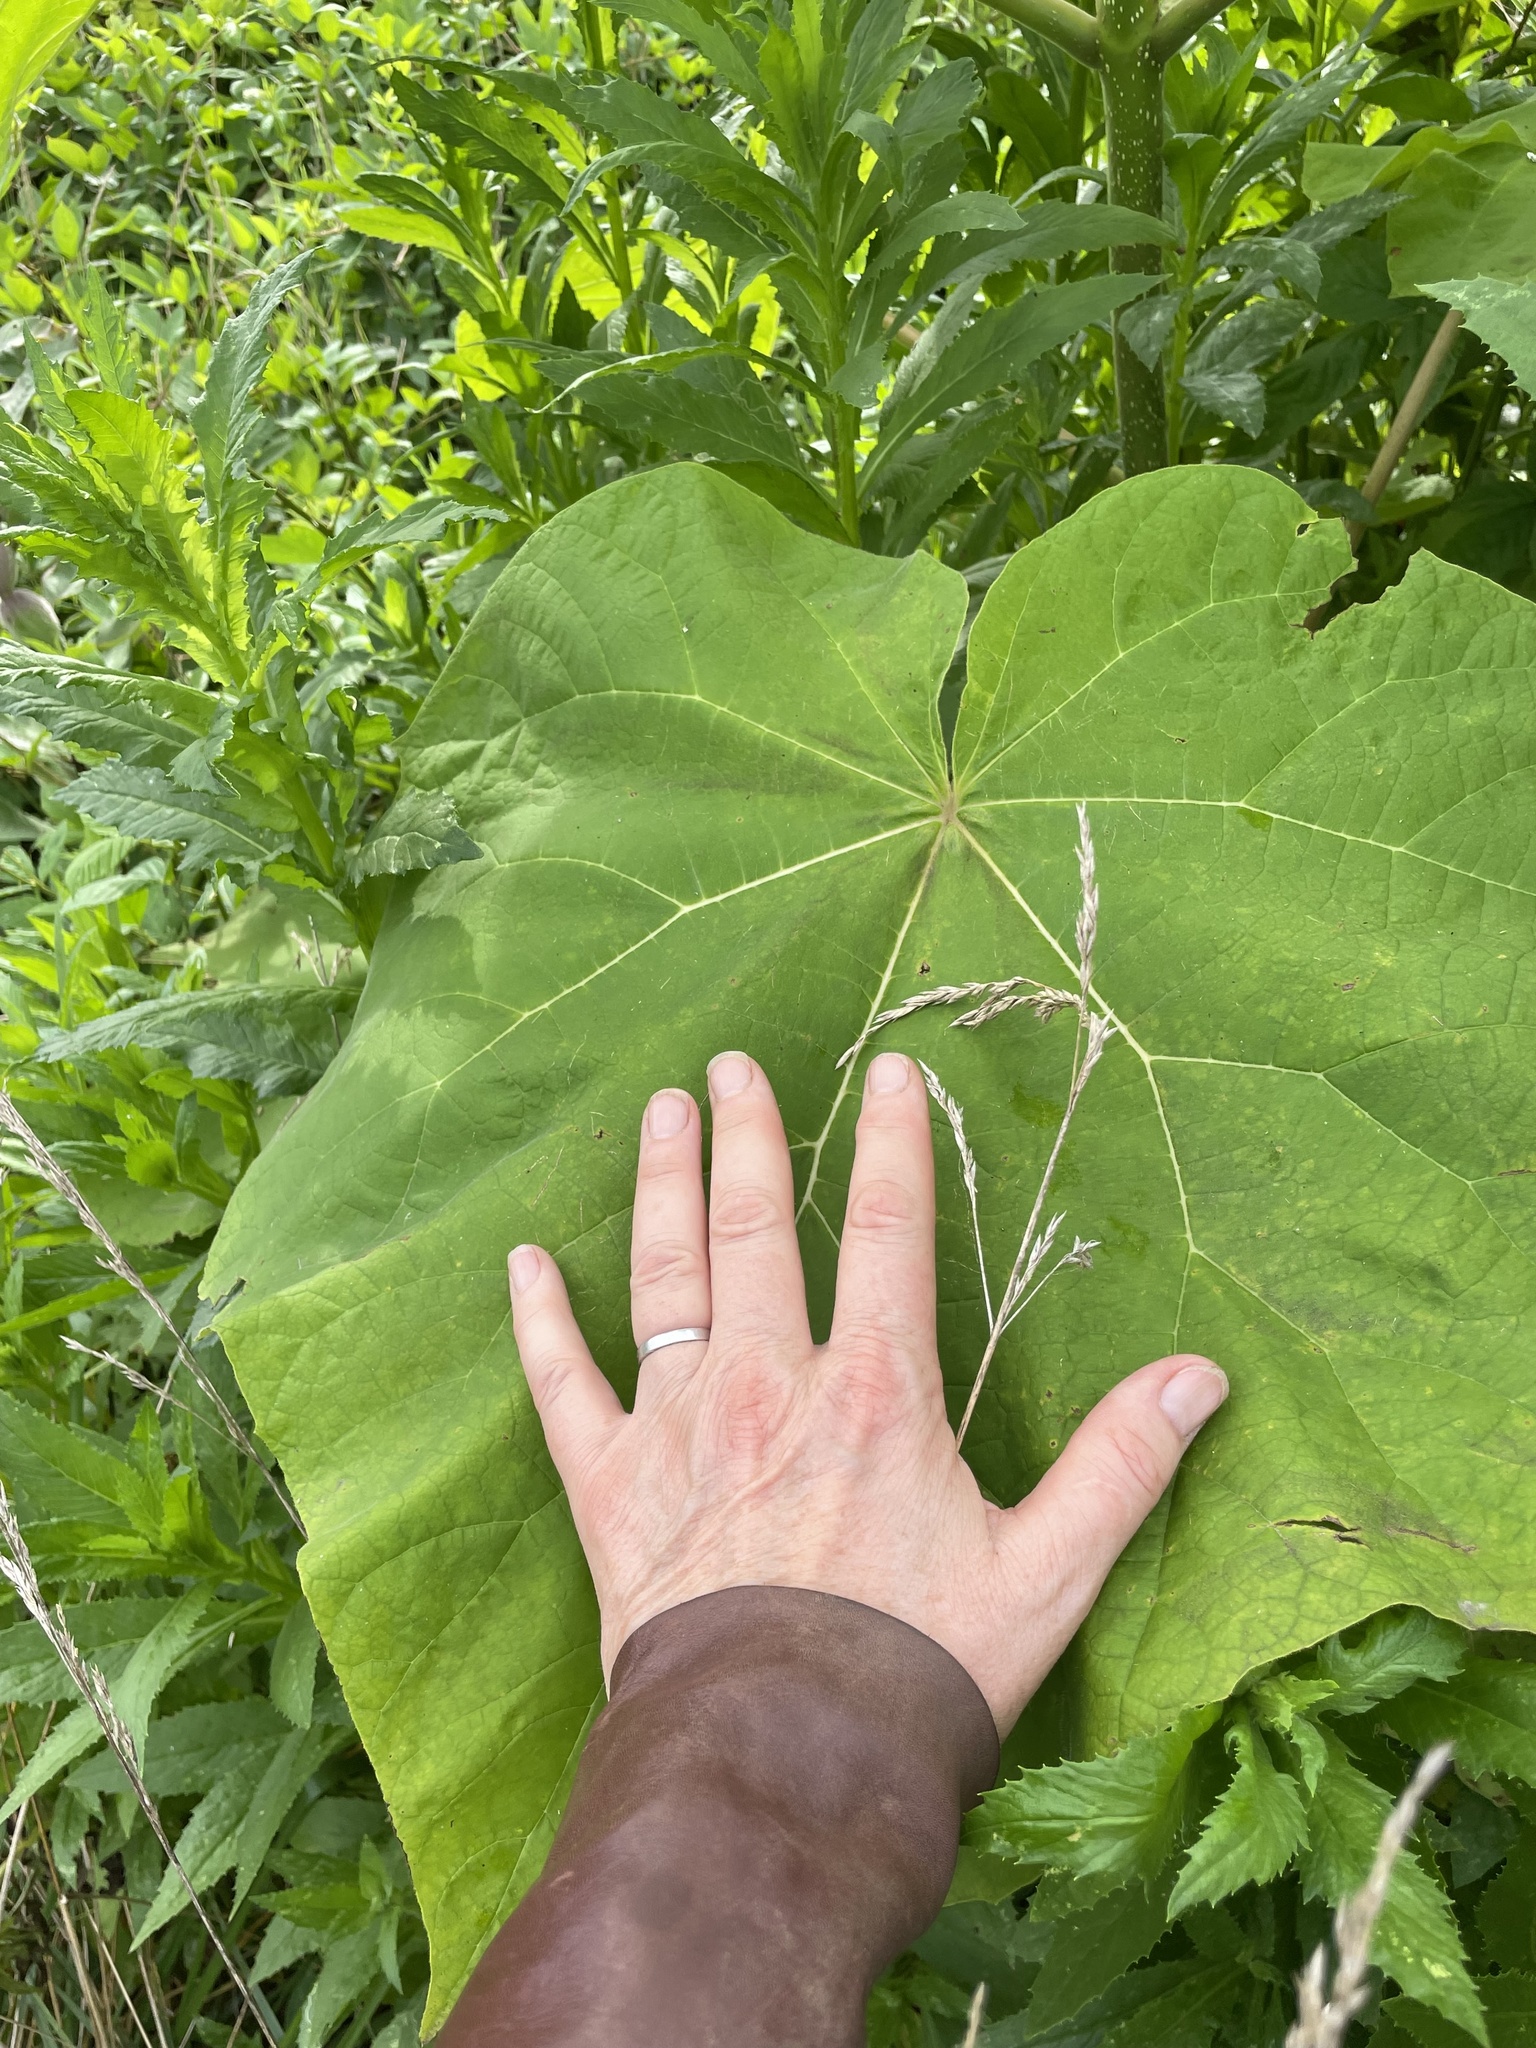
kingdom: Plantae
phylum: Tracheophyta
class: Magnoliopsida
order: Lamiales
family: Paulowniaceae
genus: Paulownia
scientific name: Paulownia tomentosa
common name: Foxglove-tree
